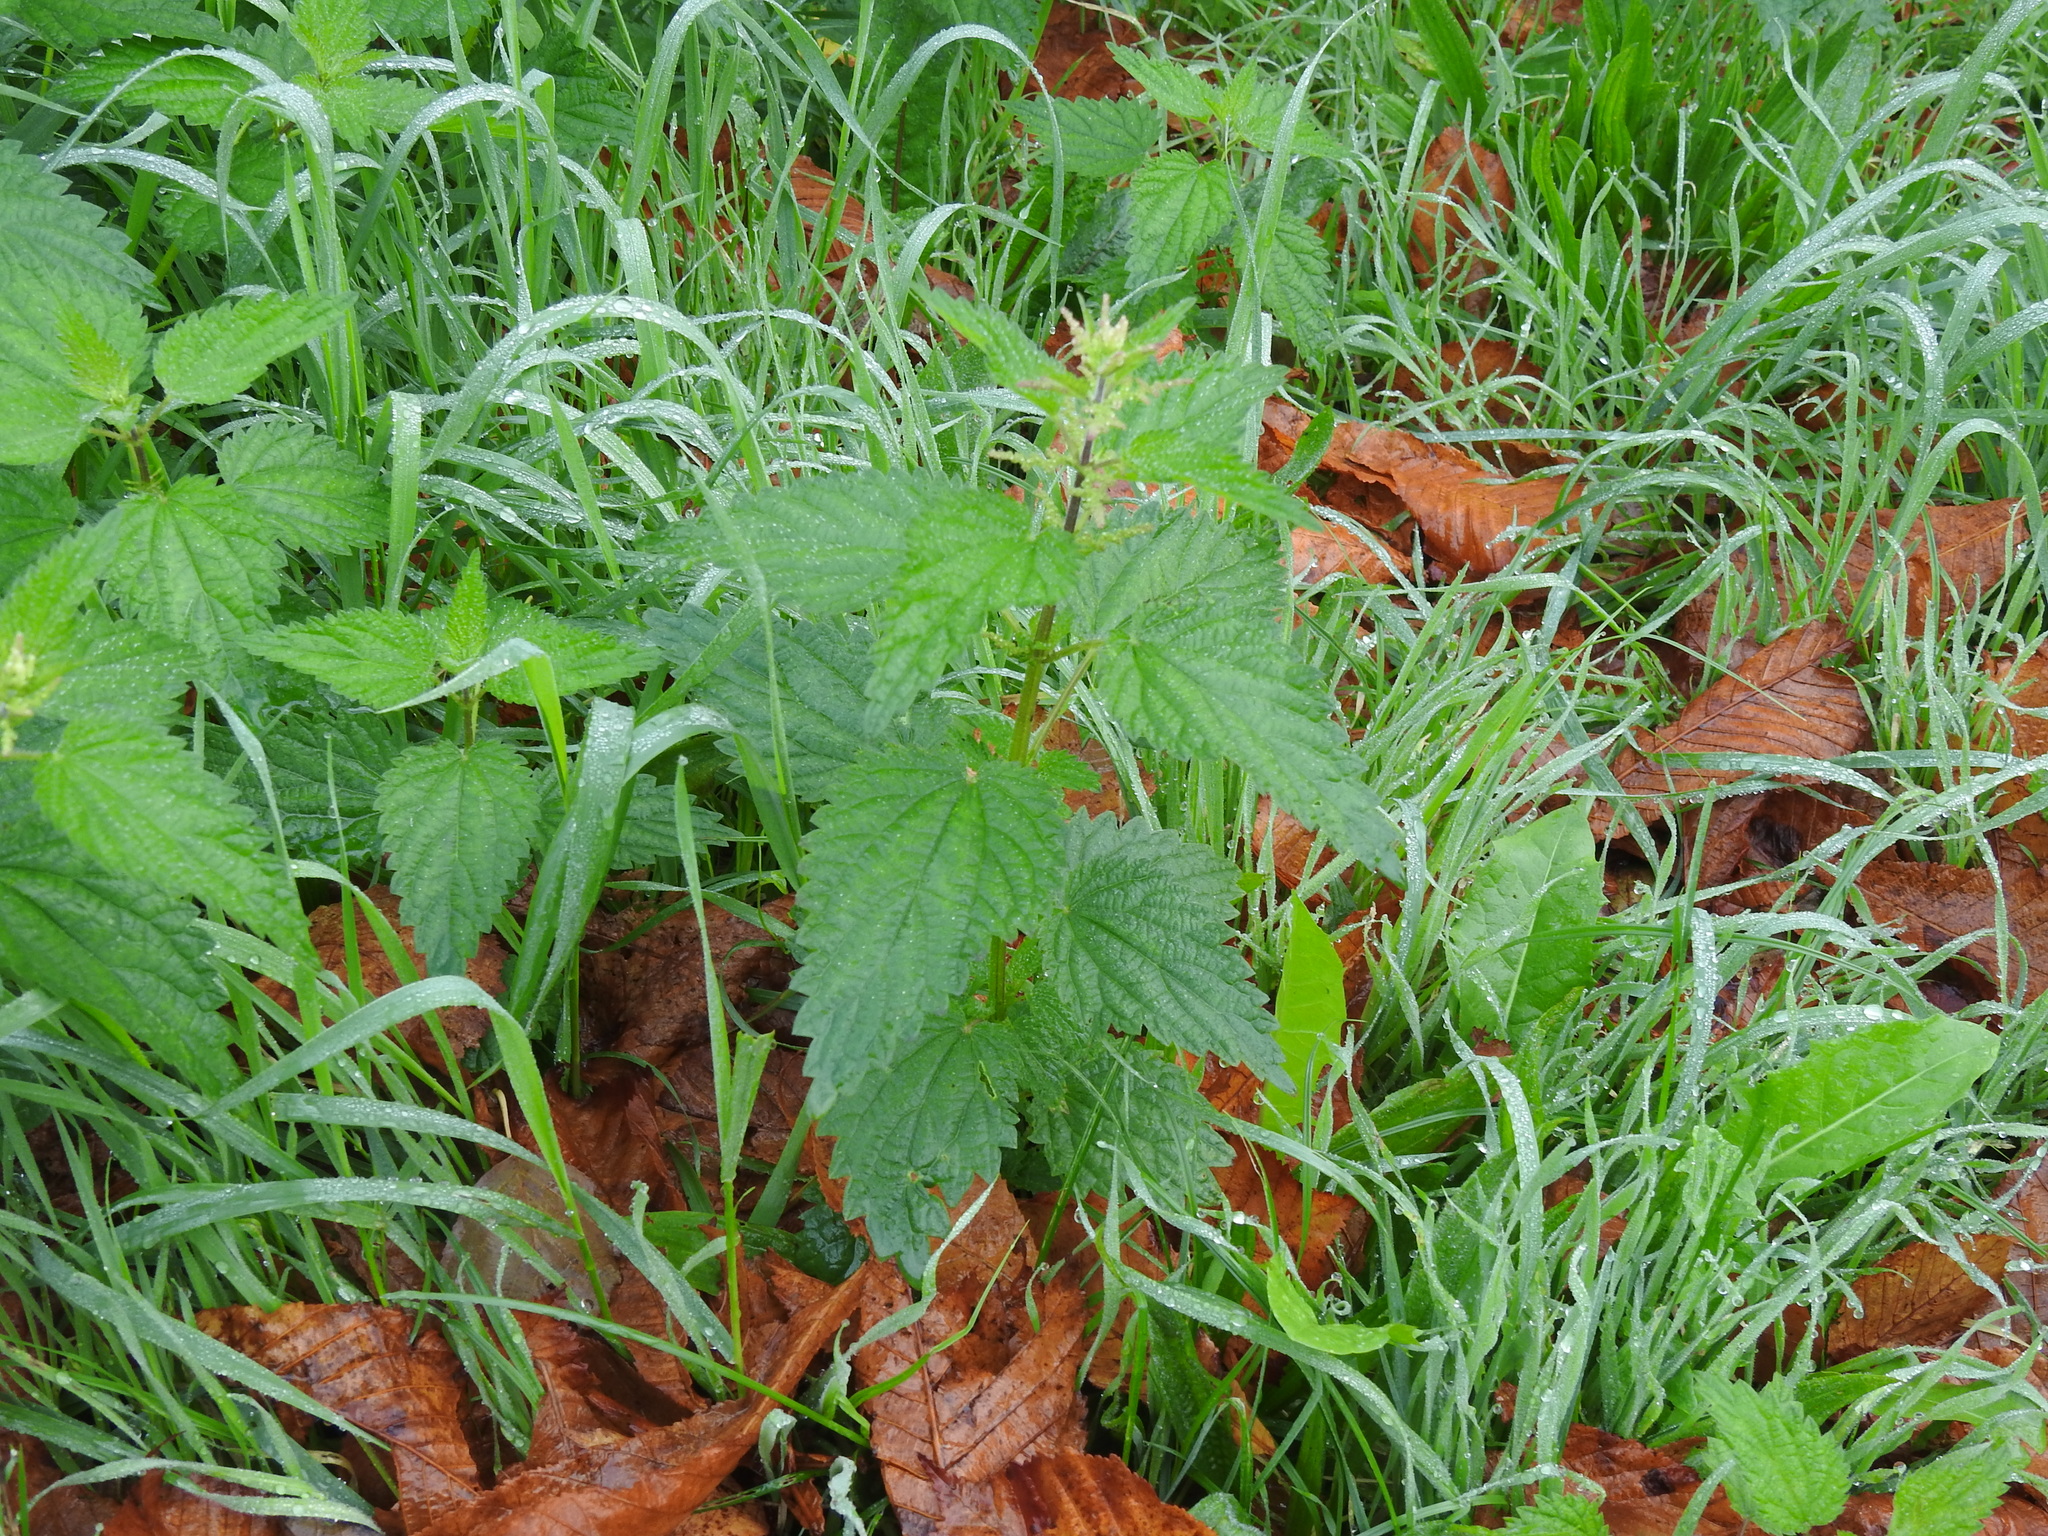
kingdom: Plantae
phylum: Tracheophyta
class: Magnoliopsida
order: Rosales
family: Urticaceae
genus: Urtica
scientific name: Urtica dioica
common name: Common nettle
